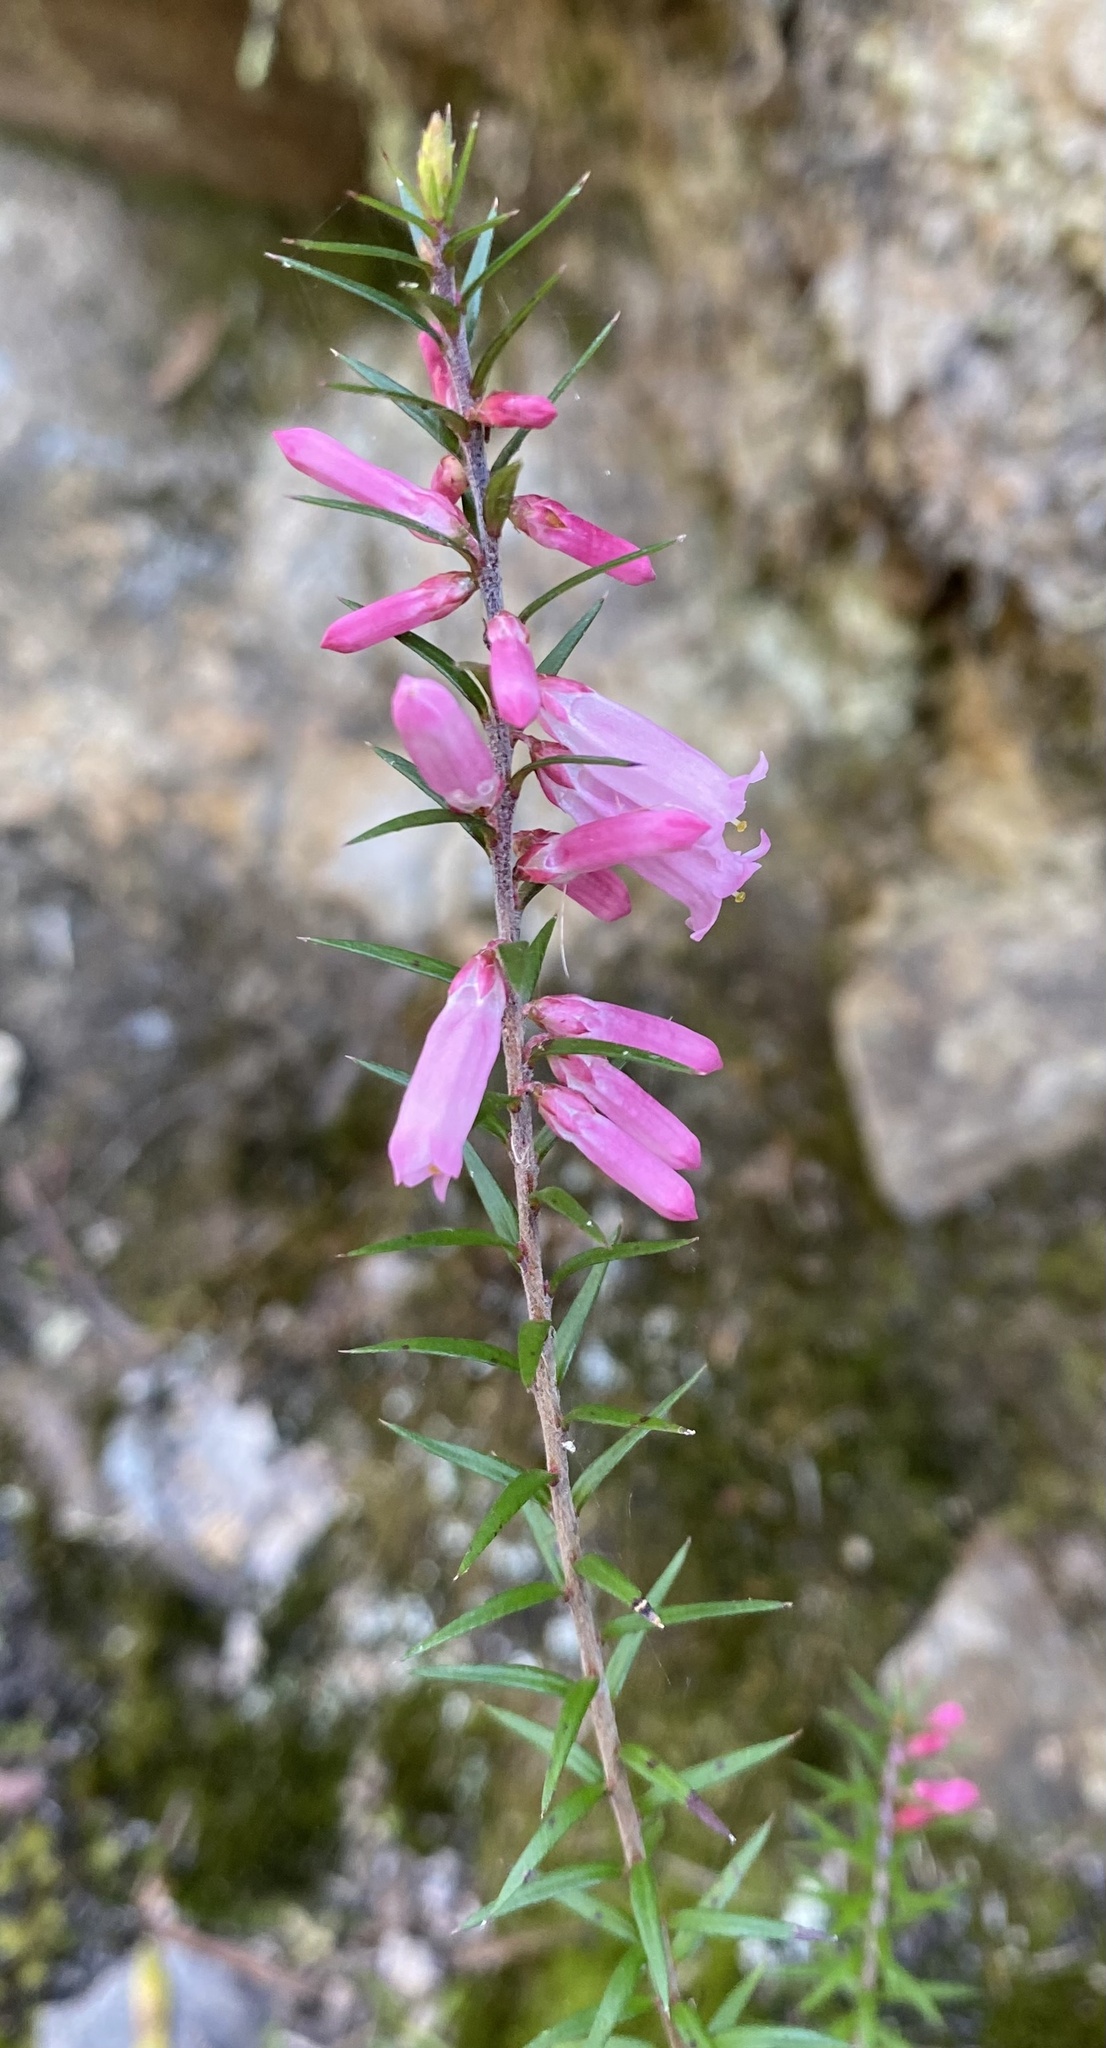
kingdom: Plantae
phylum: Tracheophyta
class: Magnoliopsida
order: Ericales
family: Ericaceae
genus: Epacris
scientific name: Epacris impressa
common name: Common-heath
